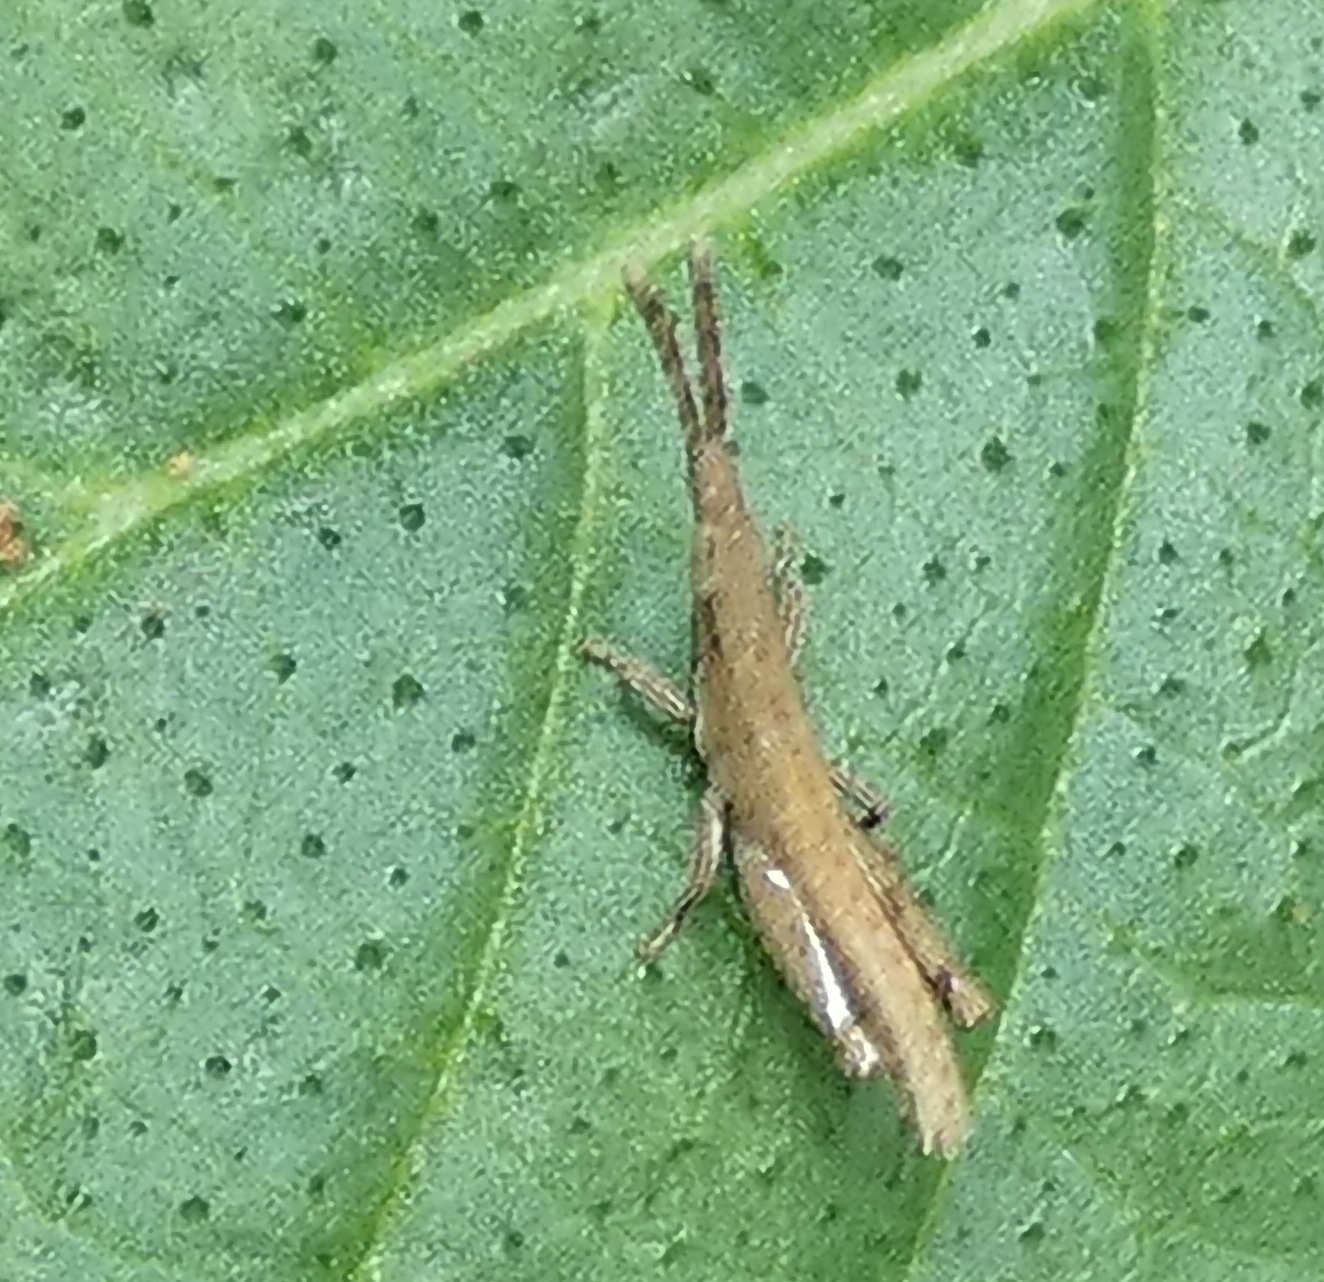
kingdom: Animalia
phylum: Arthropoda
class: Insecta
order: Orthoptera
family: Pyrgomorphidae
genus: Algete
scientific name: Algete brunneri
